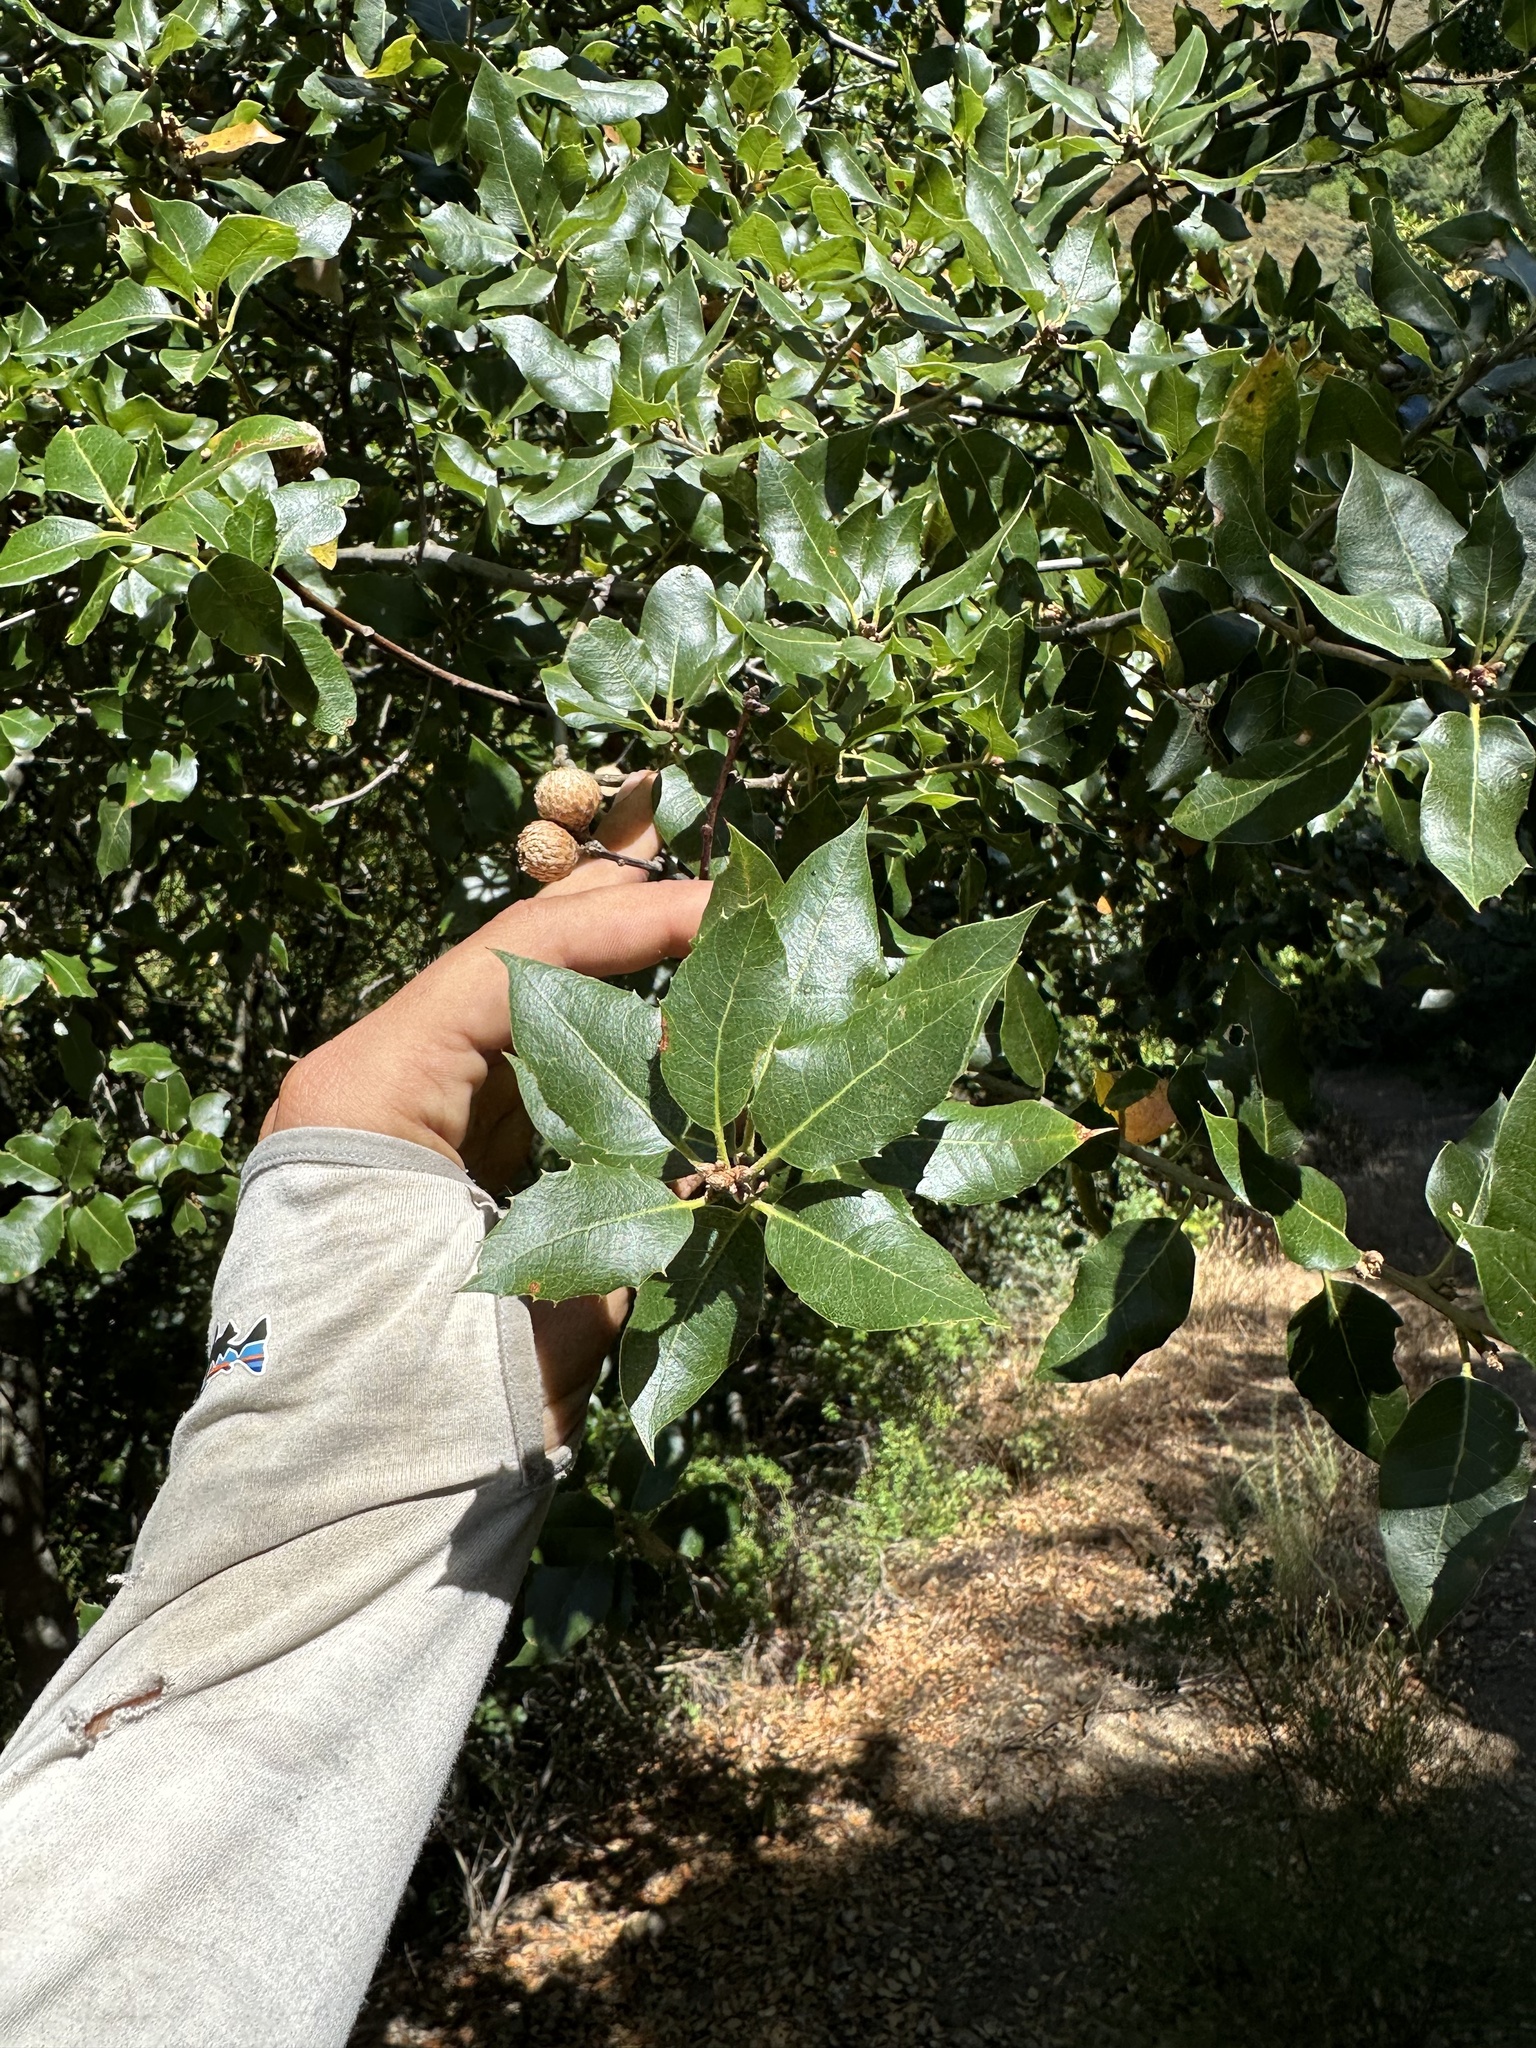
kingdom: Plantae
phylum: Tracheophyta
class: Magnoliopsida
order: Fagales
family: Fagaceae
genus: Quercus
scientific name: Quercus parvula
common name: Santa cruz island oak
